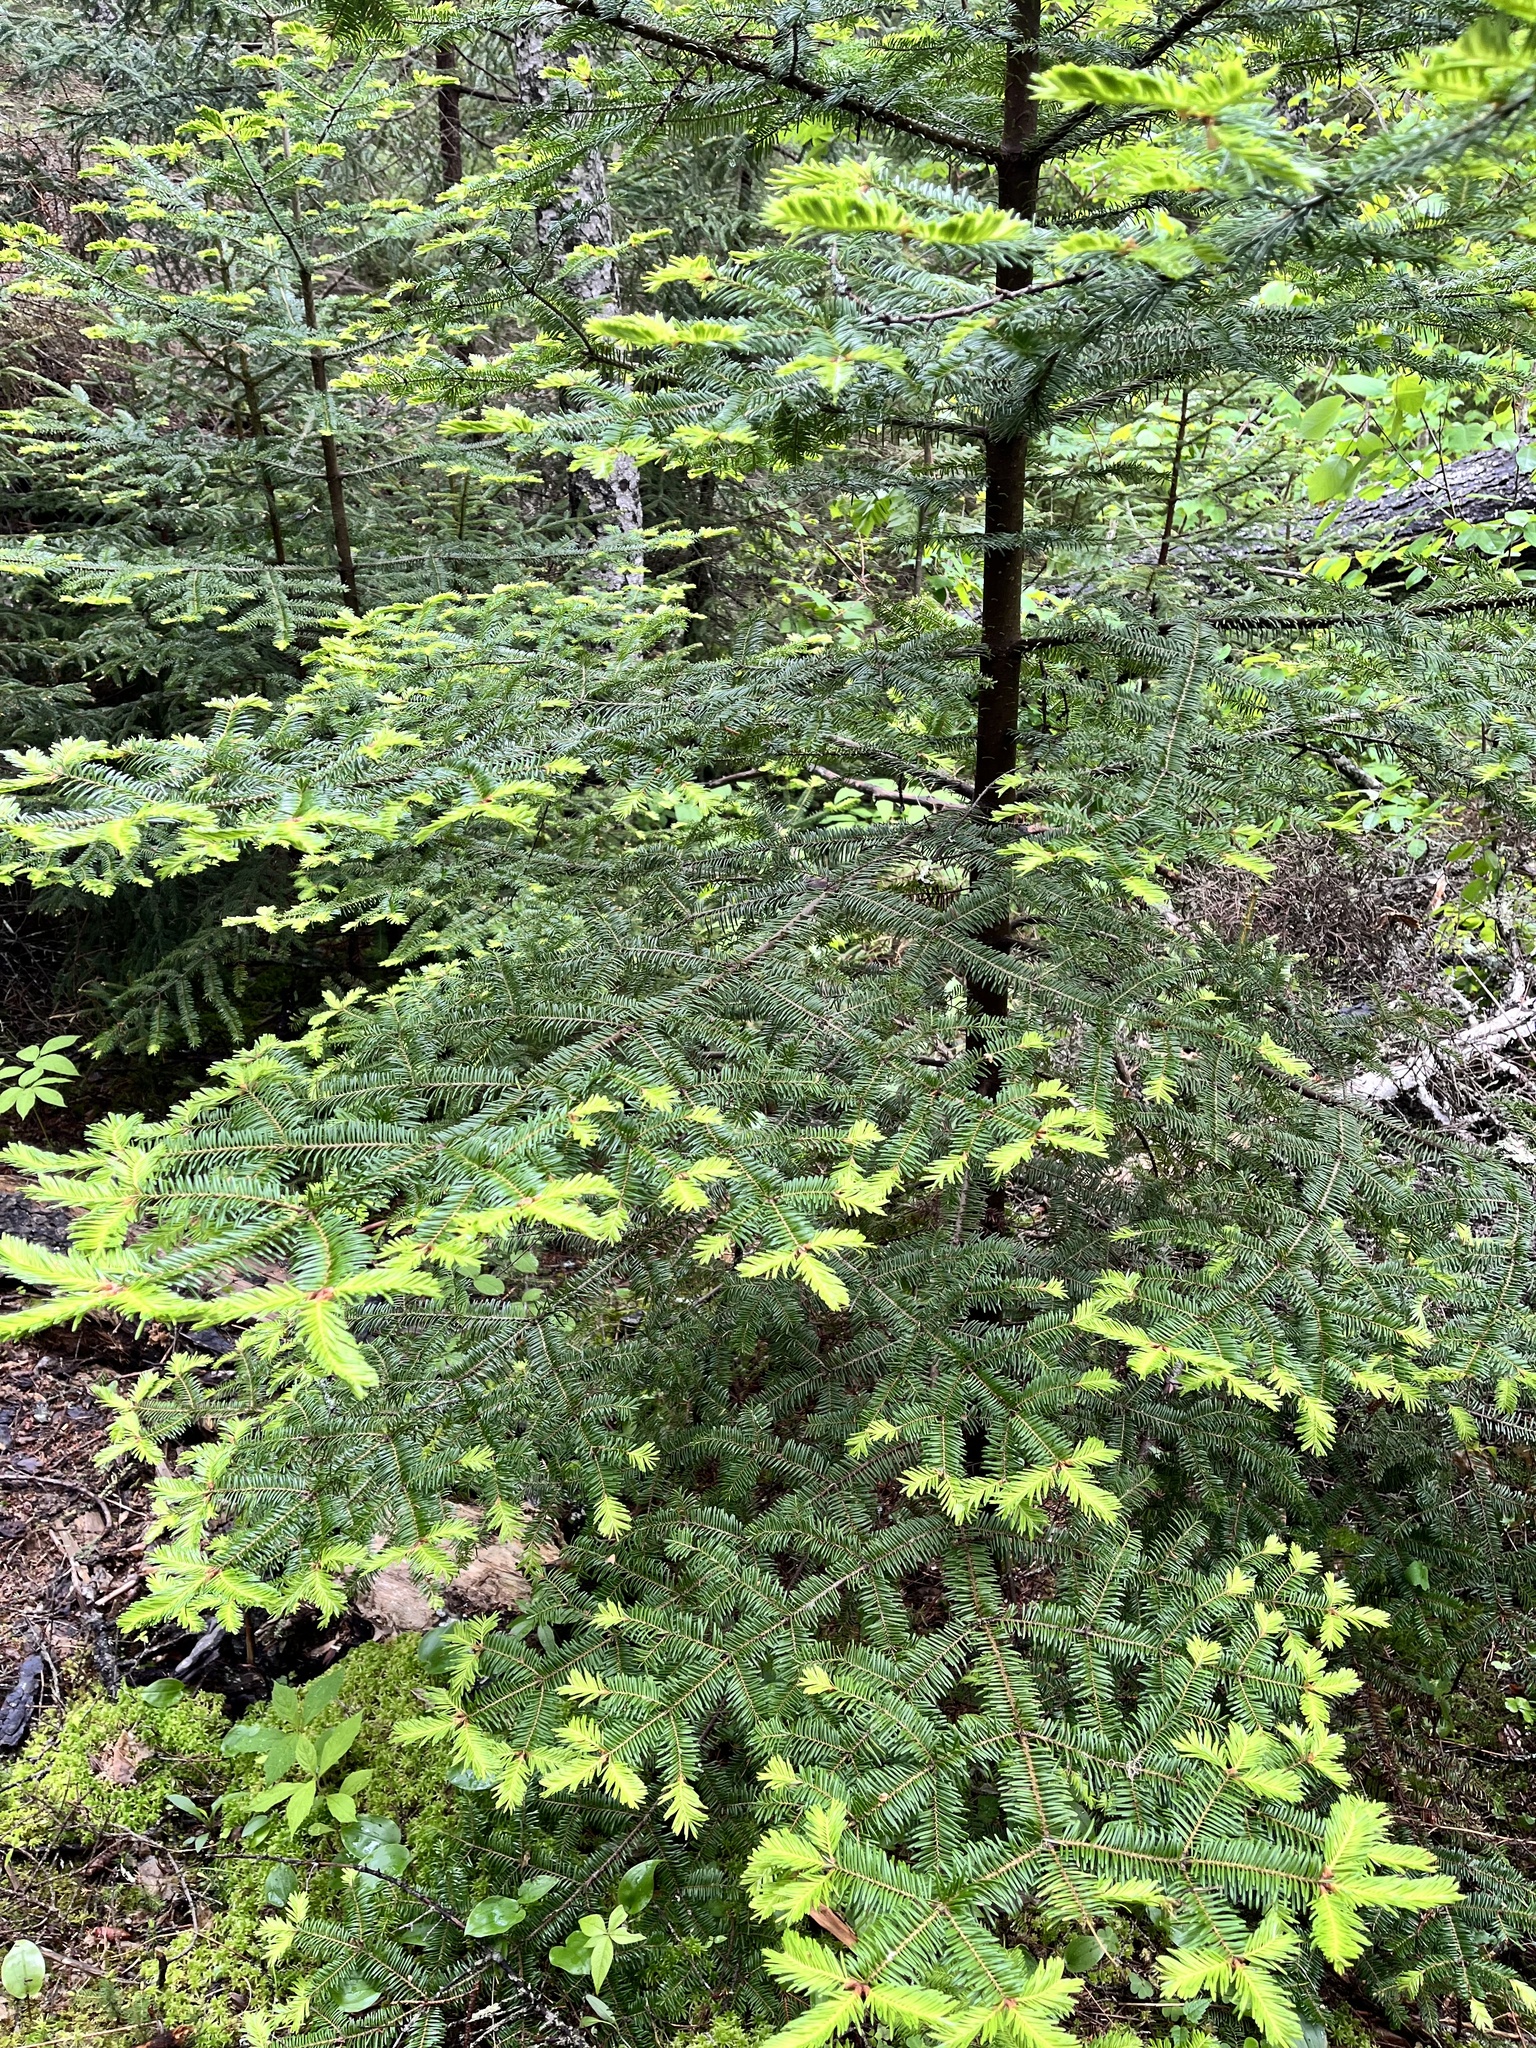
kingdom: Plantae
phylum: Tracheophyta
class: Pinopsida
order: Pinales
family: Pinaceae
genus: Abies
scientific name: Abies balsamea
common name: Balsam fir
